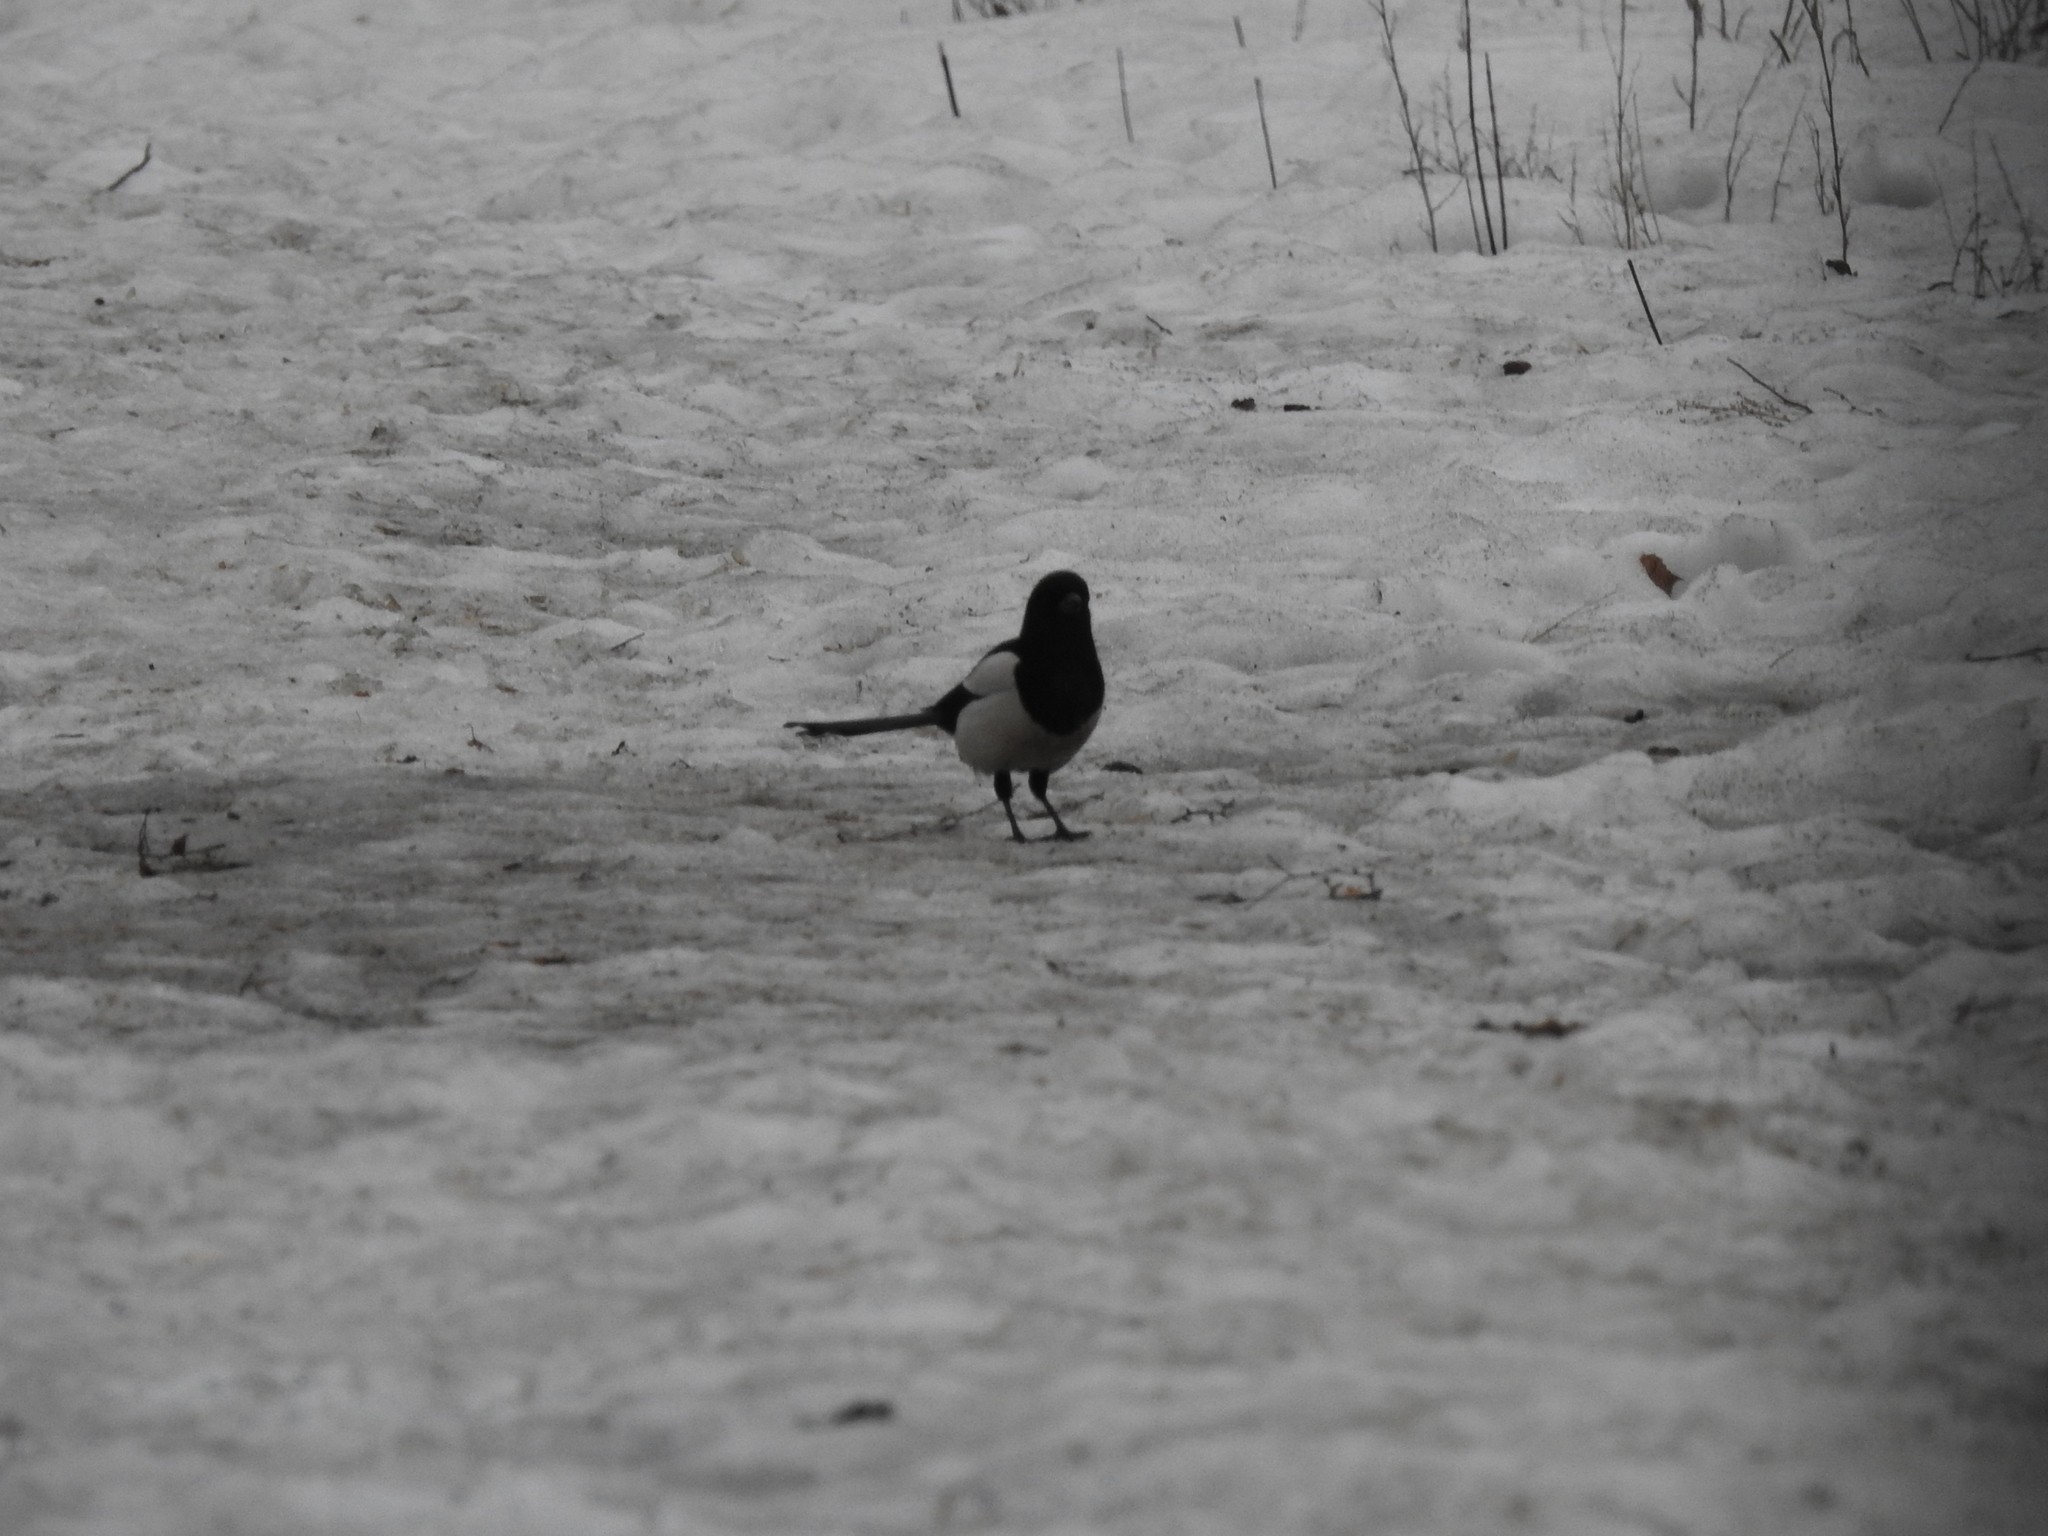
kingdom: Animalia
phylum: Chordata
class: Aves
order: Passeriformes
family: Corvidae
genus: Pica
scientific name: Pica pica
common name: Eurasian magpie
